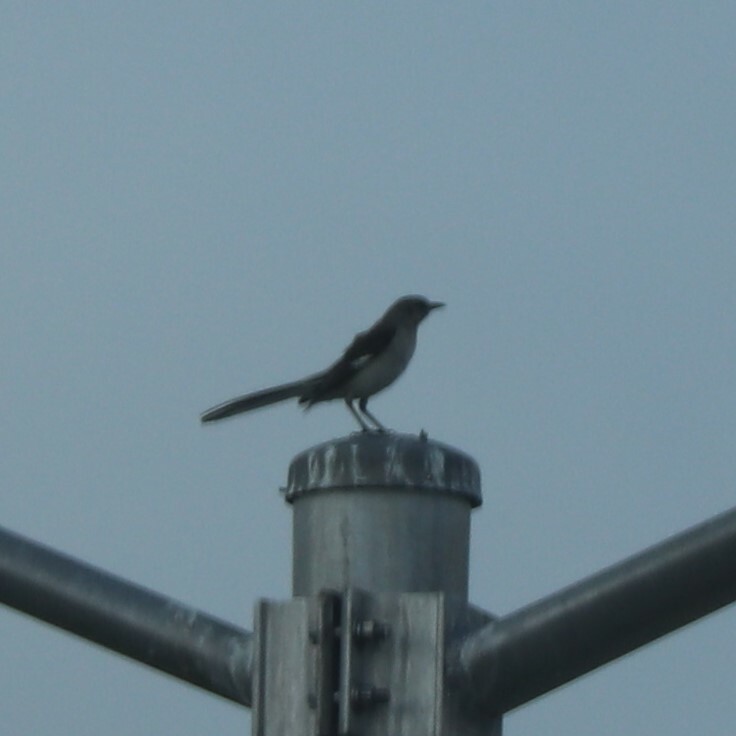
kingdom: Animalia
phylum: Chordata
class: Aves
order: Passeriformes
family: Mimidae
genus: Mimus
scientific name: Mimus polyglottos
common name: Northern mockingbird
